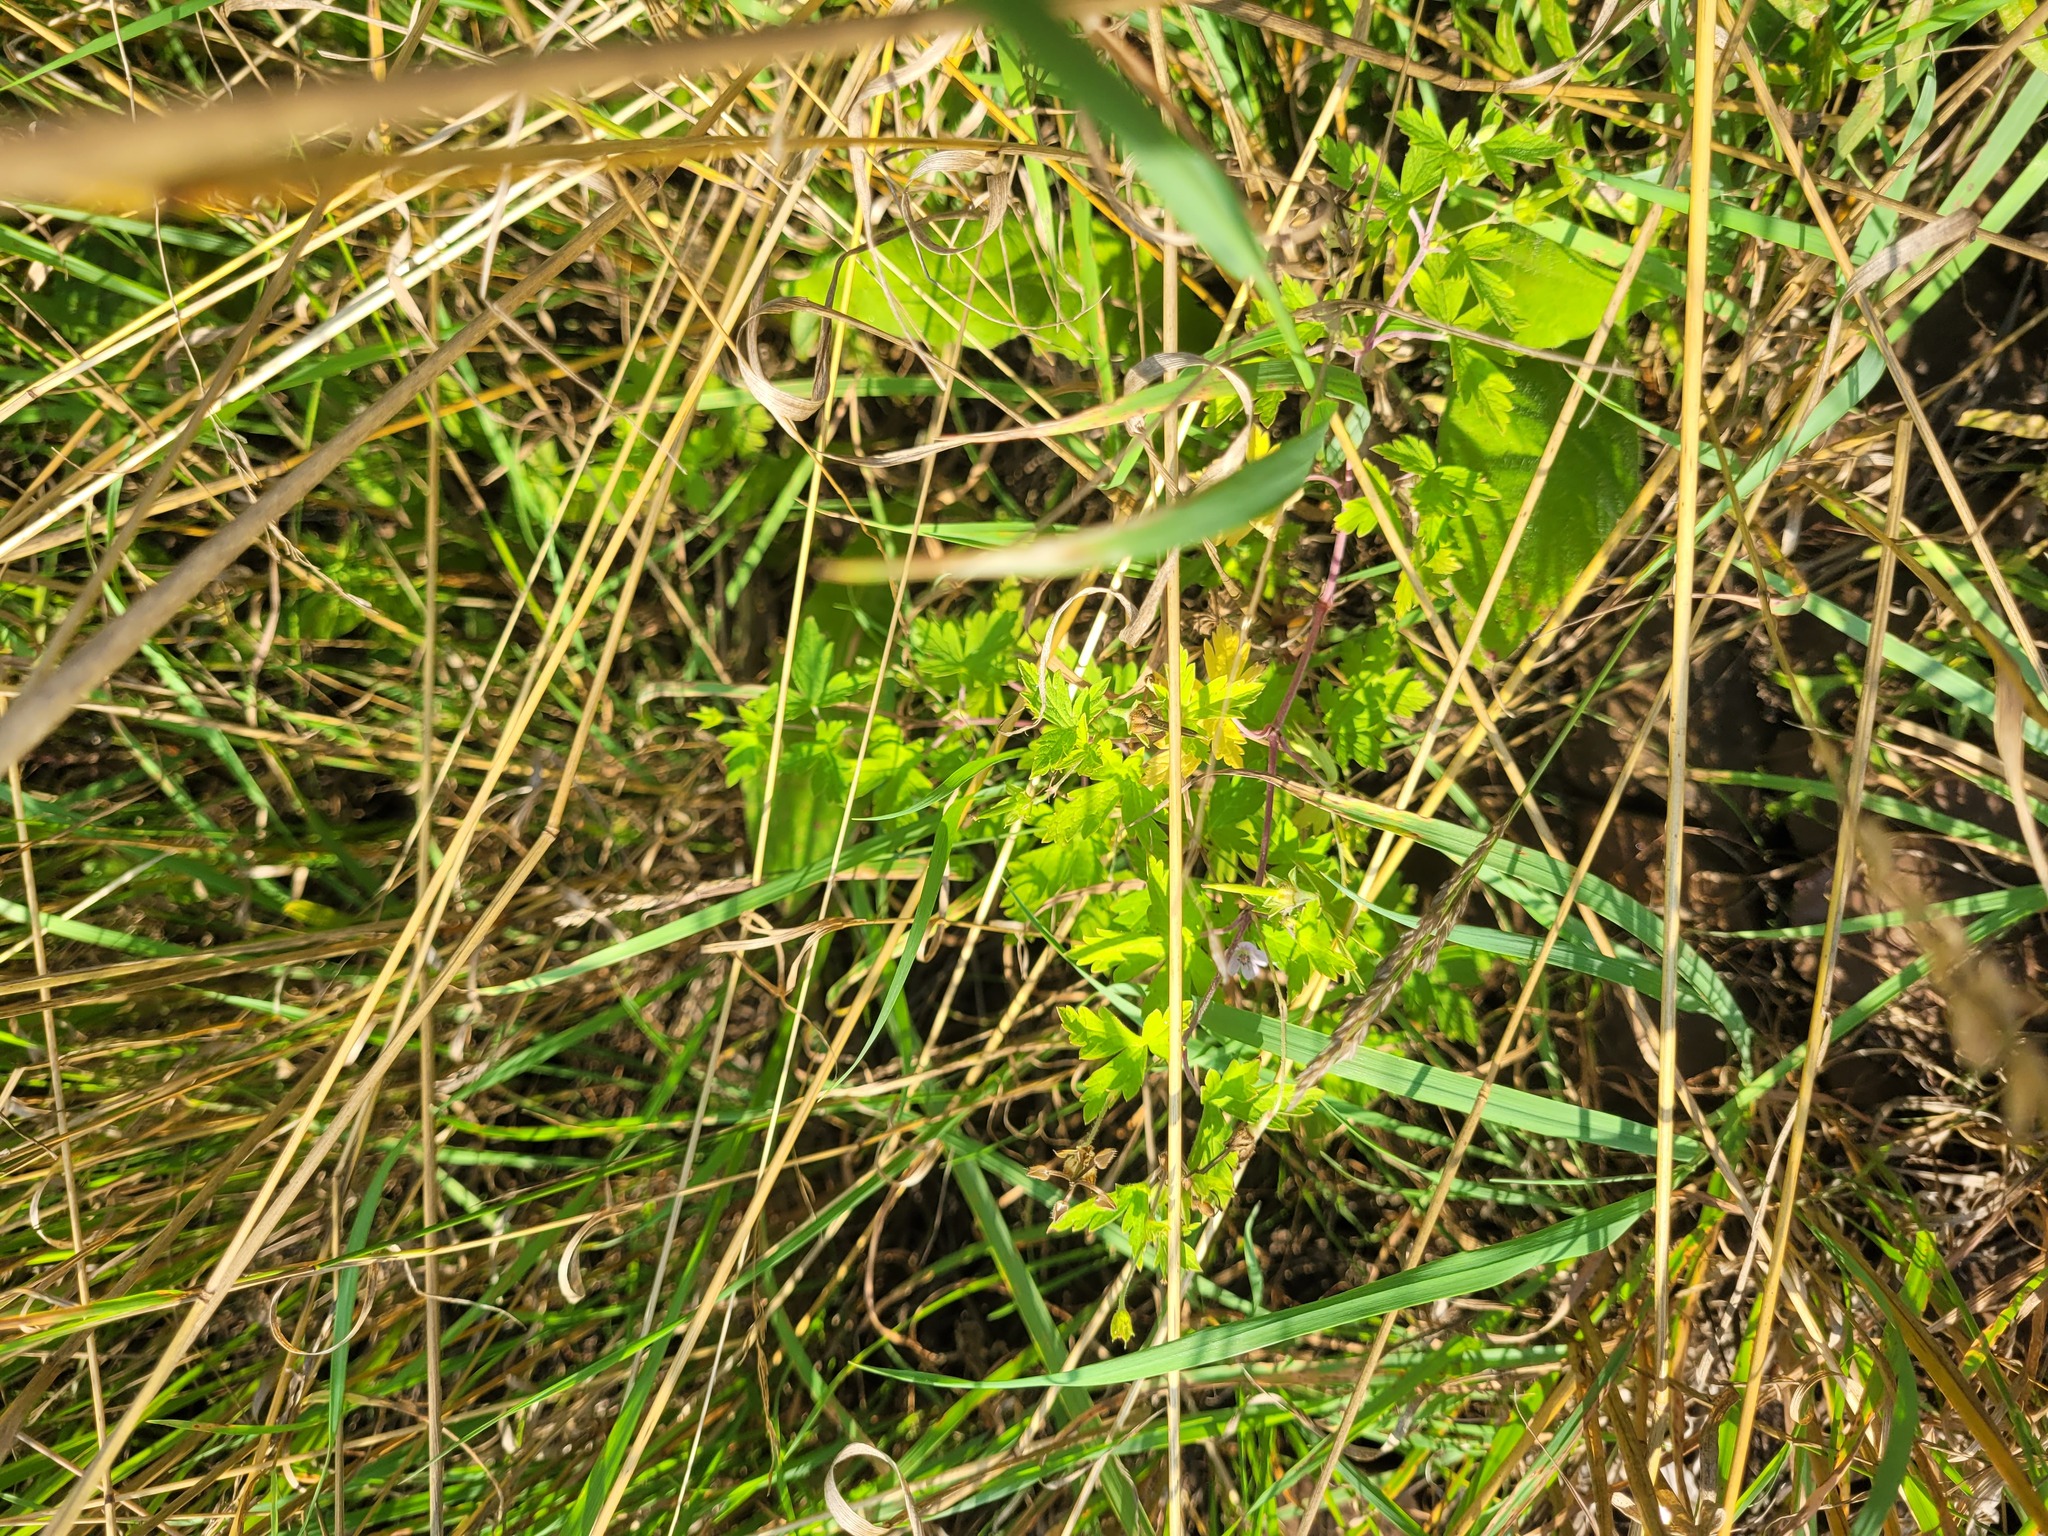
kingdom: Plantae
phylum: Tracheophyta
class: Magnoliopsida
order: Geraniales
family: Geraniaceae
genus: Geranium
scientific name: Geranium sibiricum
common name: Siberian crane's-bill
